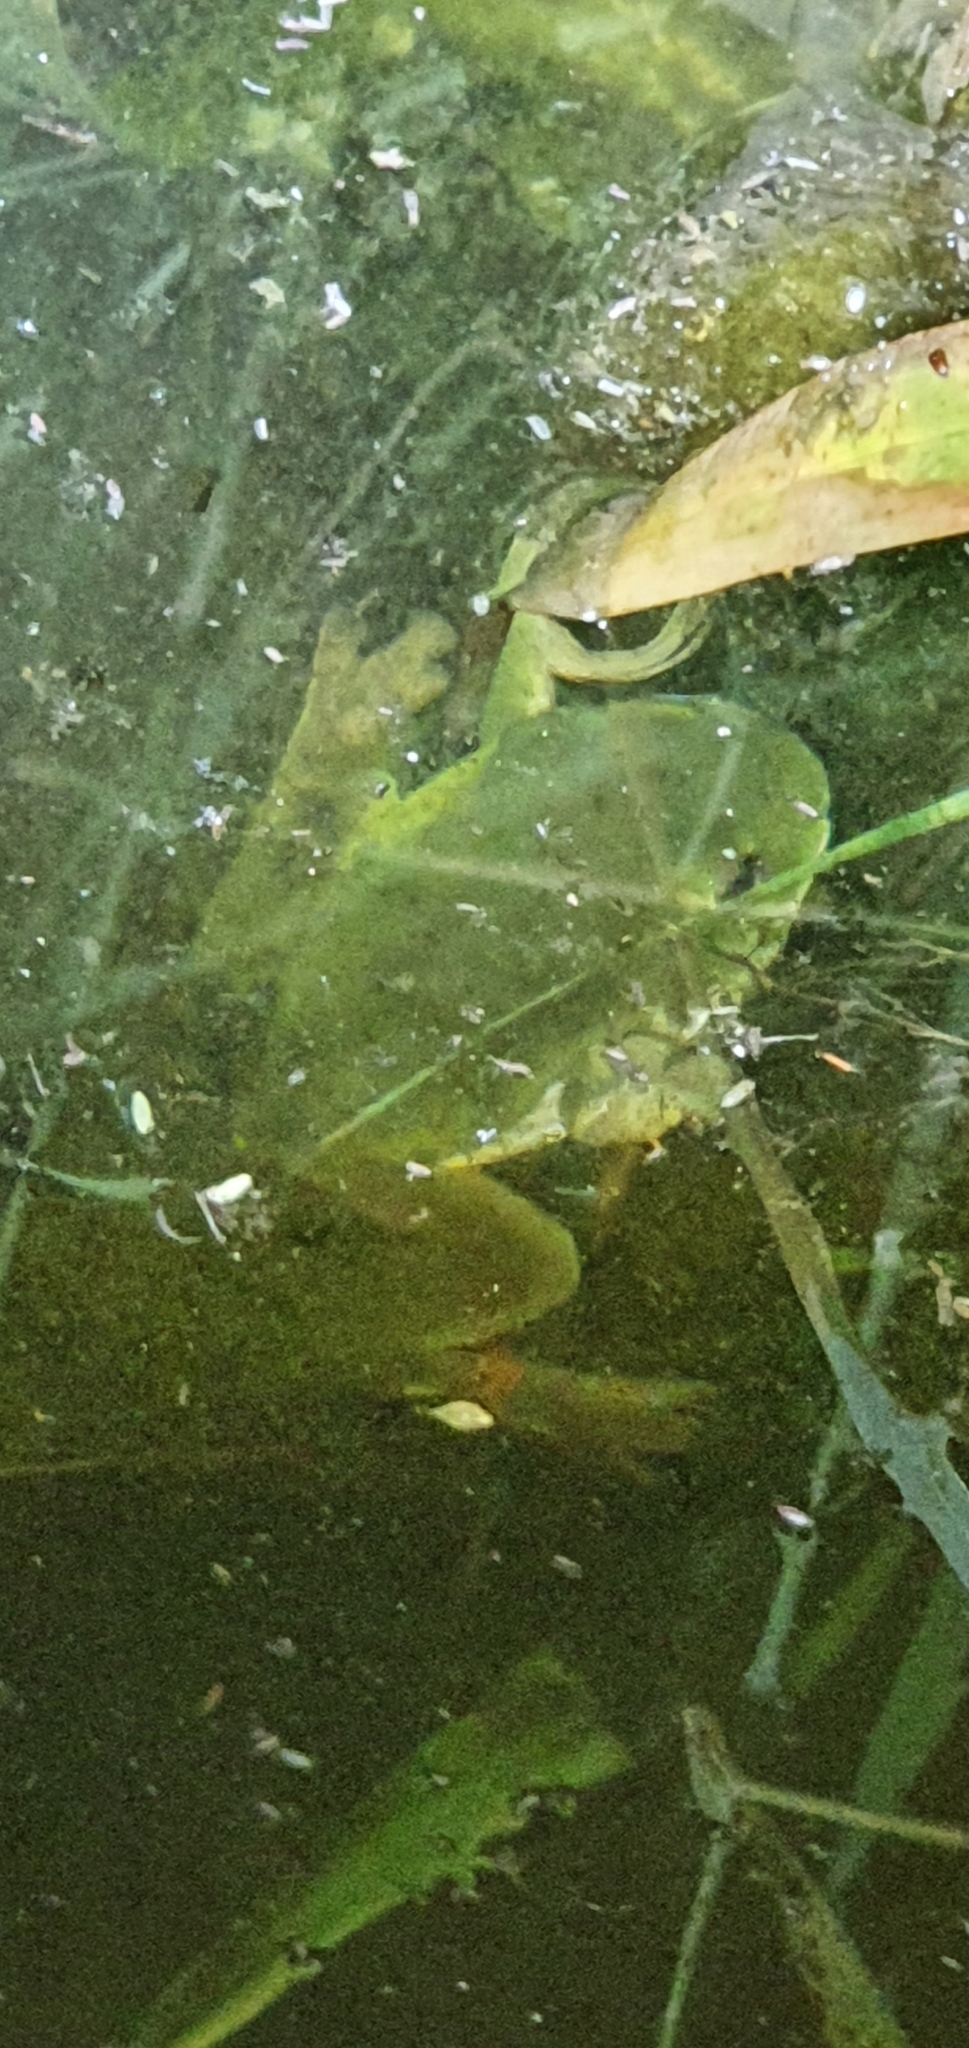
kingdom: Animalia
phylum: Chordata
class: Amphibia
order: Anura
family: Pelodryadidae
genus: Ranoidea
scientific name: Ranoidea caerulea
